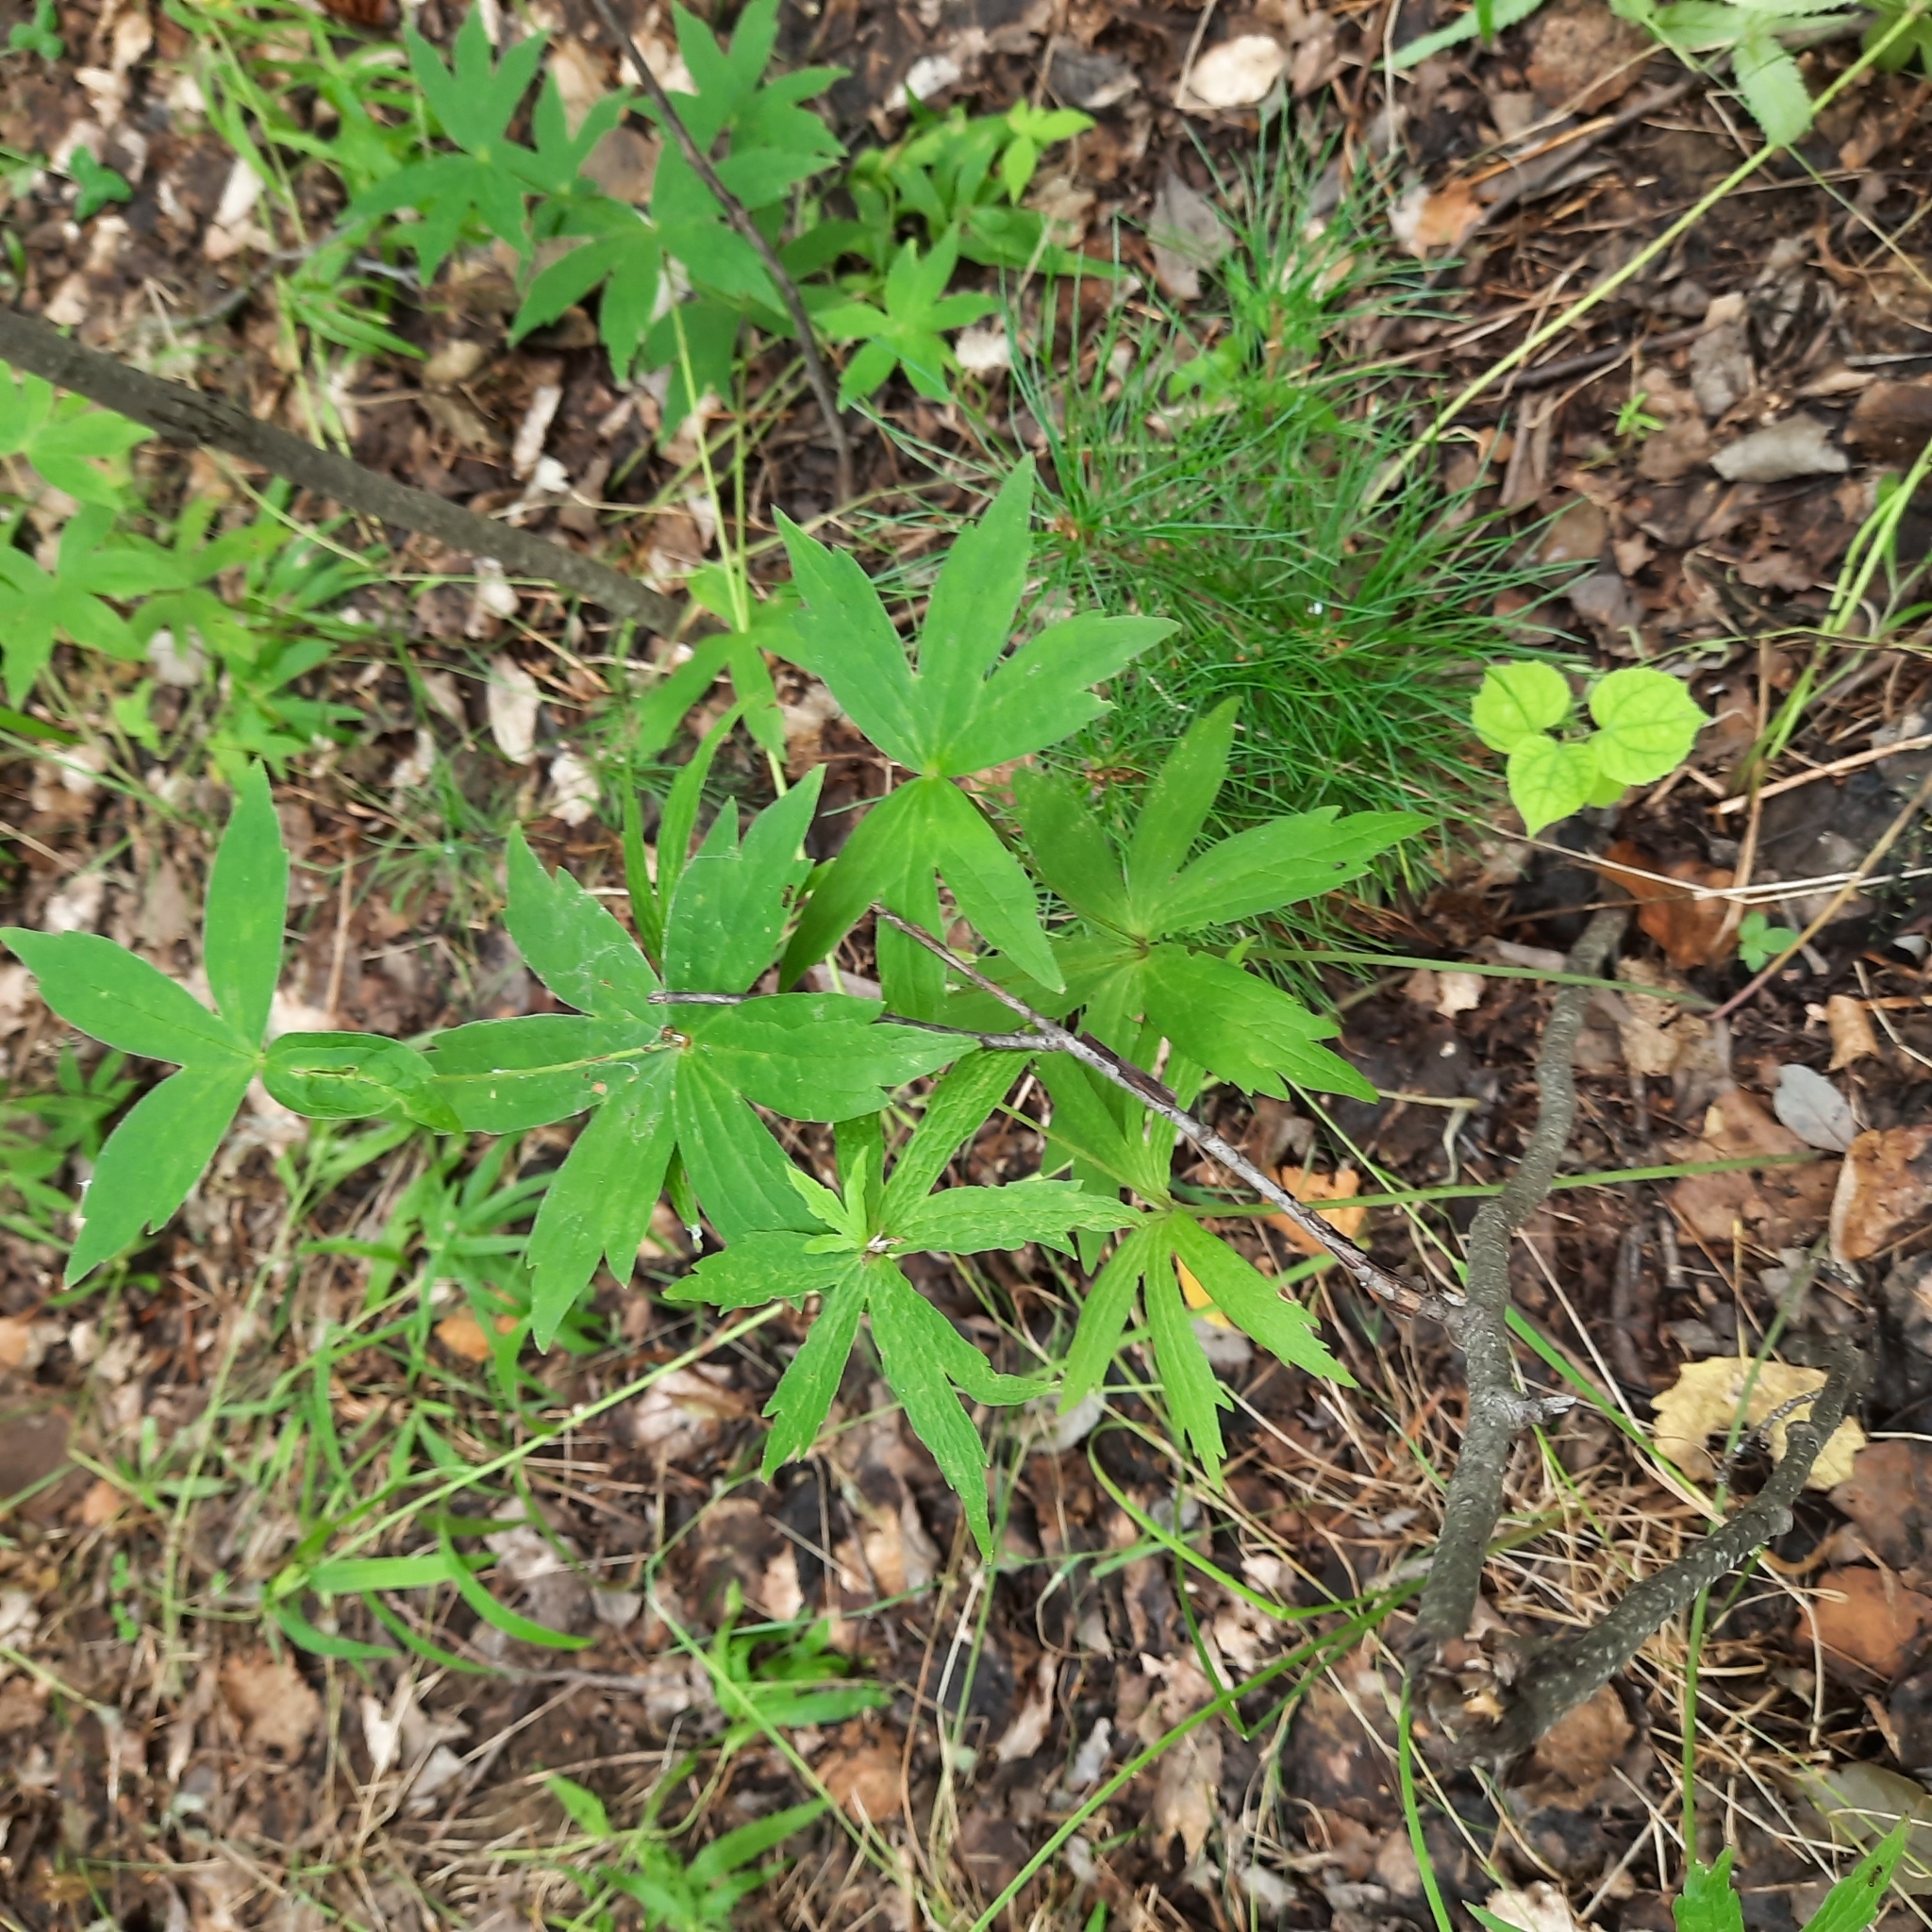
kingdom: Plantae
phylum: Tracheophyta
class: Magnoliopsida
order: Ranunculales
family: Ranunculaceae
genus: Anemonastrum
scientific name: Anemonastrum dichotomum
